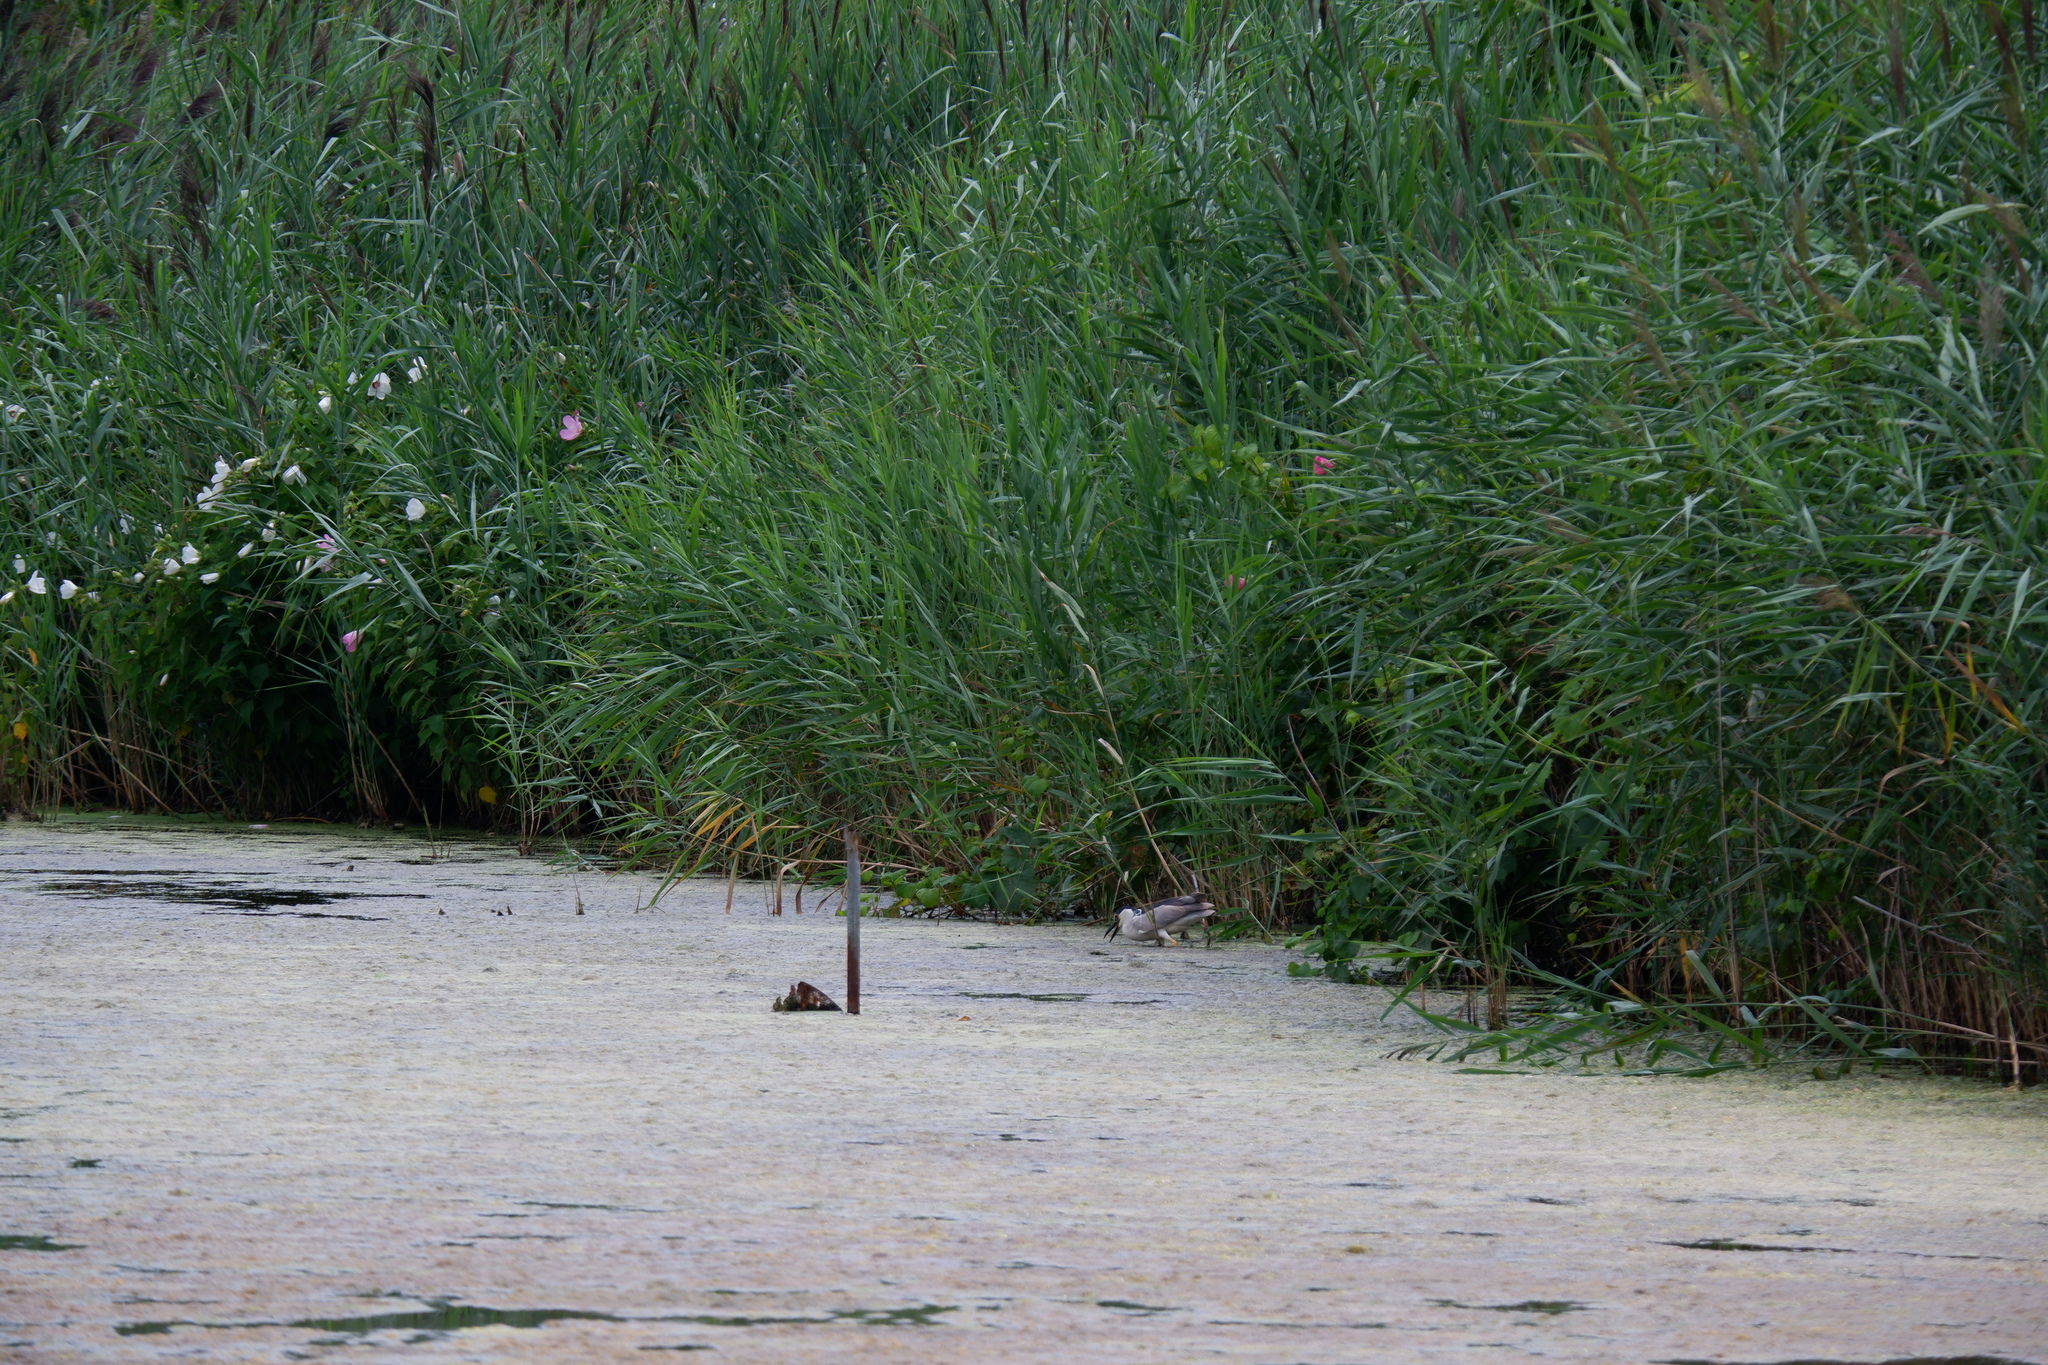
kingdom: Plantae
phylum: Tracheophyta
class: Magnoliopsida
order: Malvales
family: Malvaceae
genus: Hibiscus
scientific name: Hibiscus moscheutos
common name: Common rose-mallow
